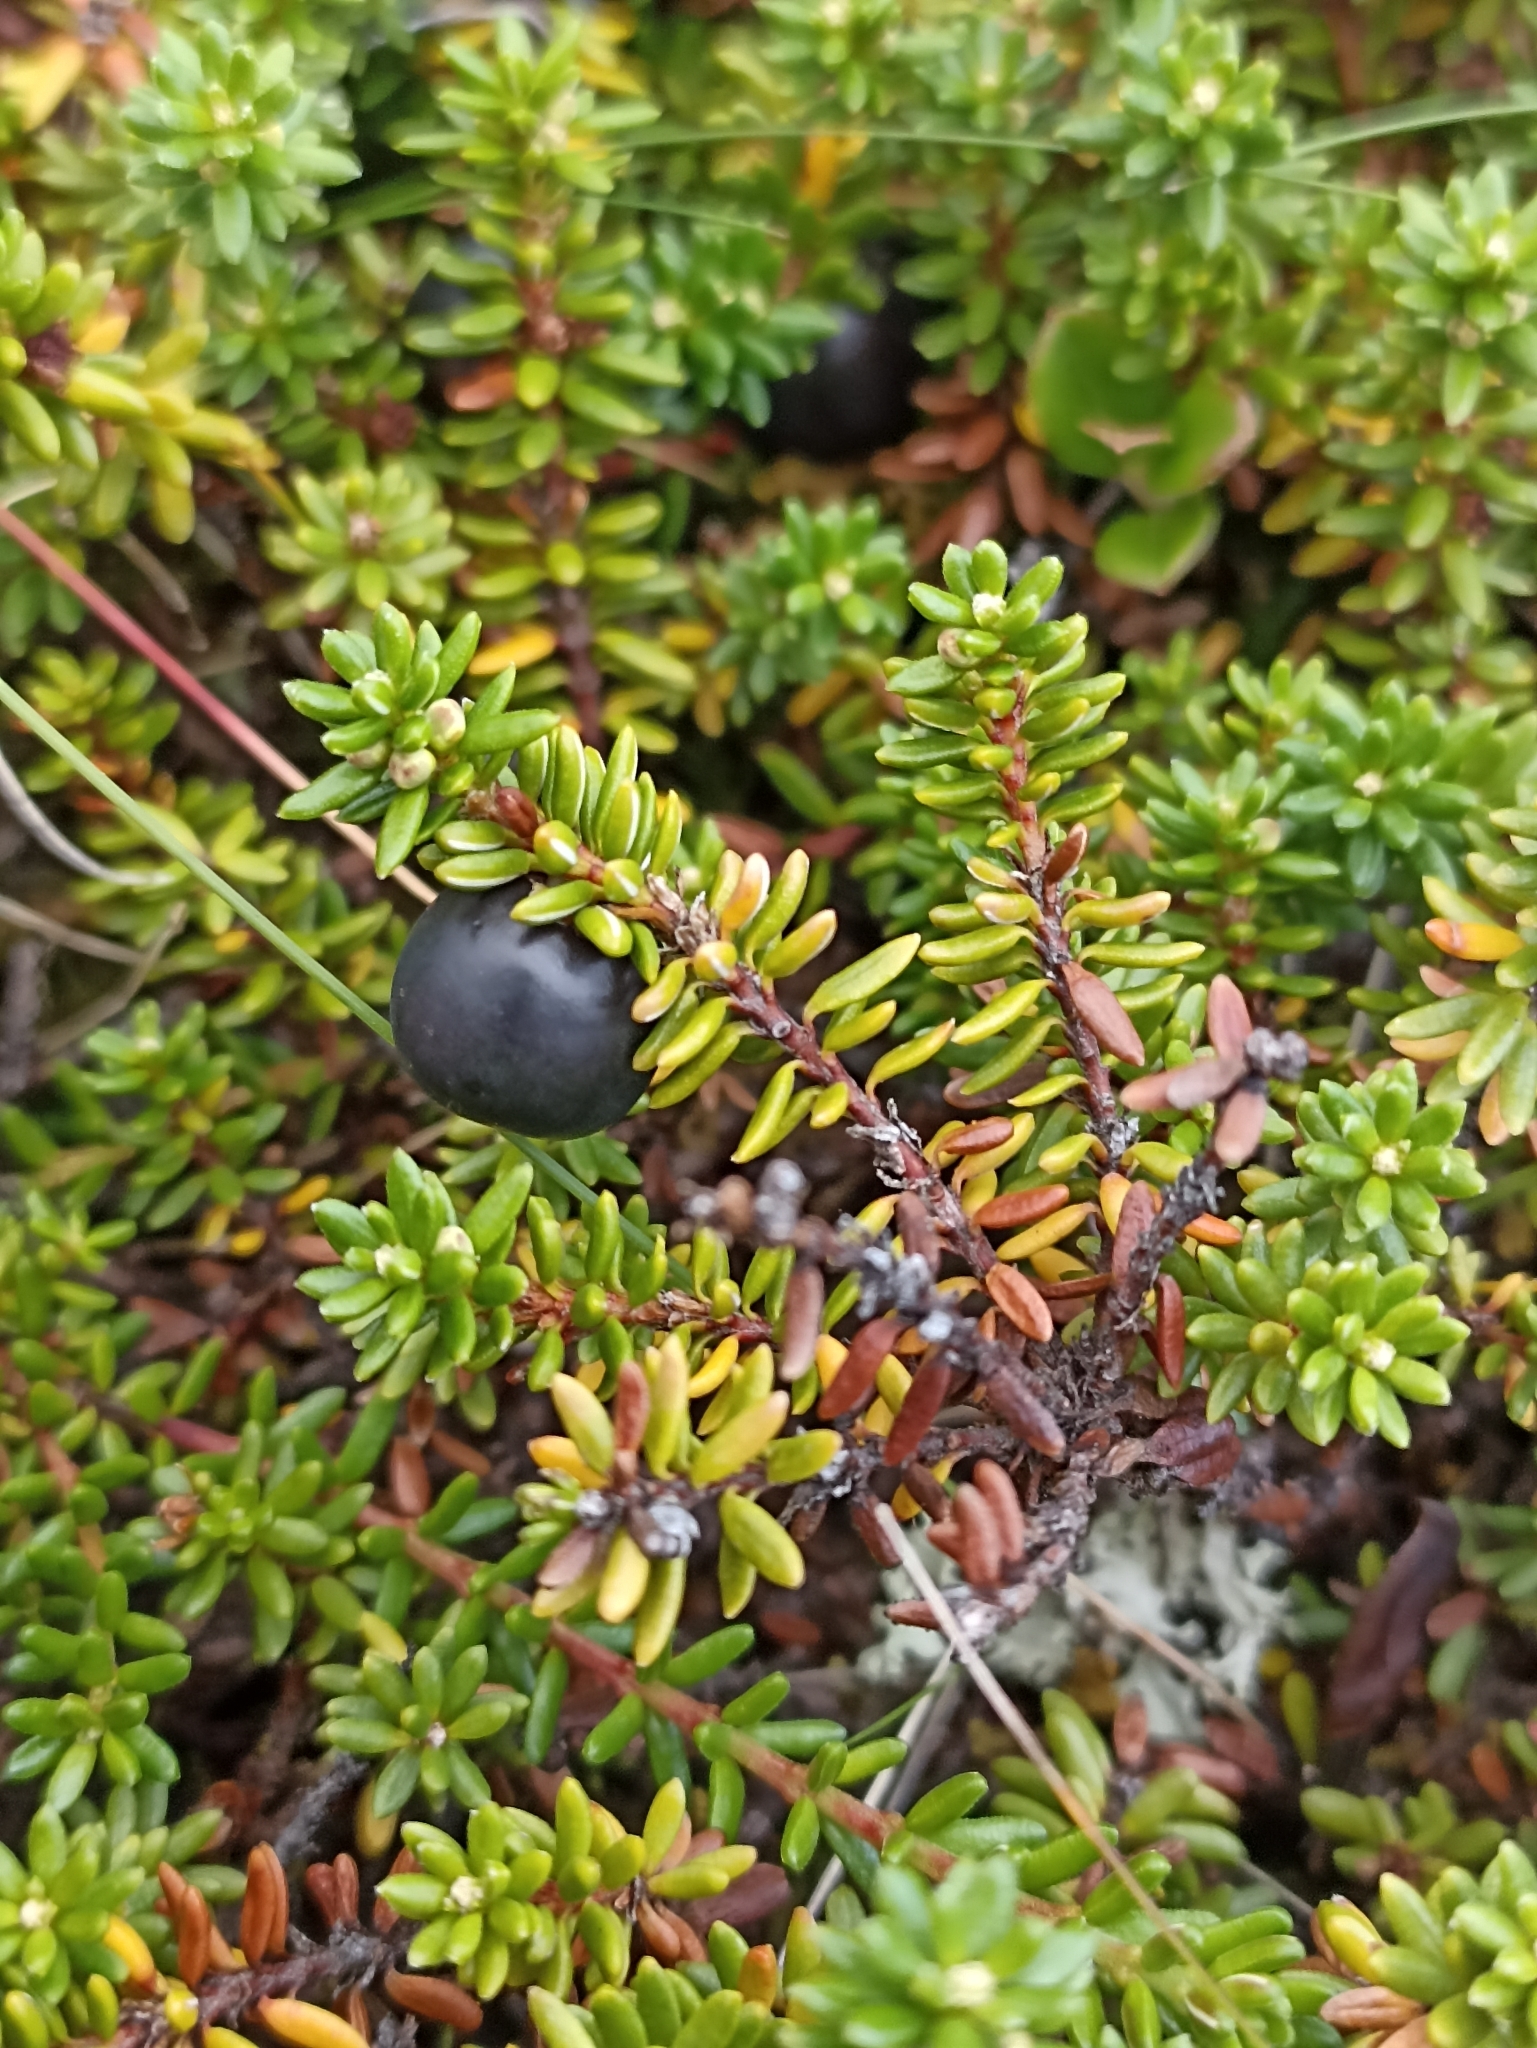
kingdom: Plantae
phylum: Tracheophyta
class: Magnoliopsida
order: Ericales
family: Ericaceae
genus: Empetrum
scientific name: Empetrum hermaphroditum
